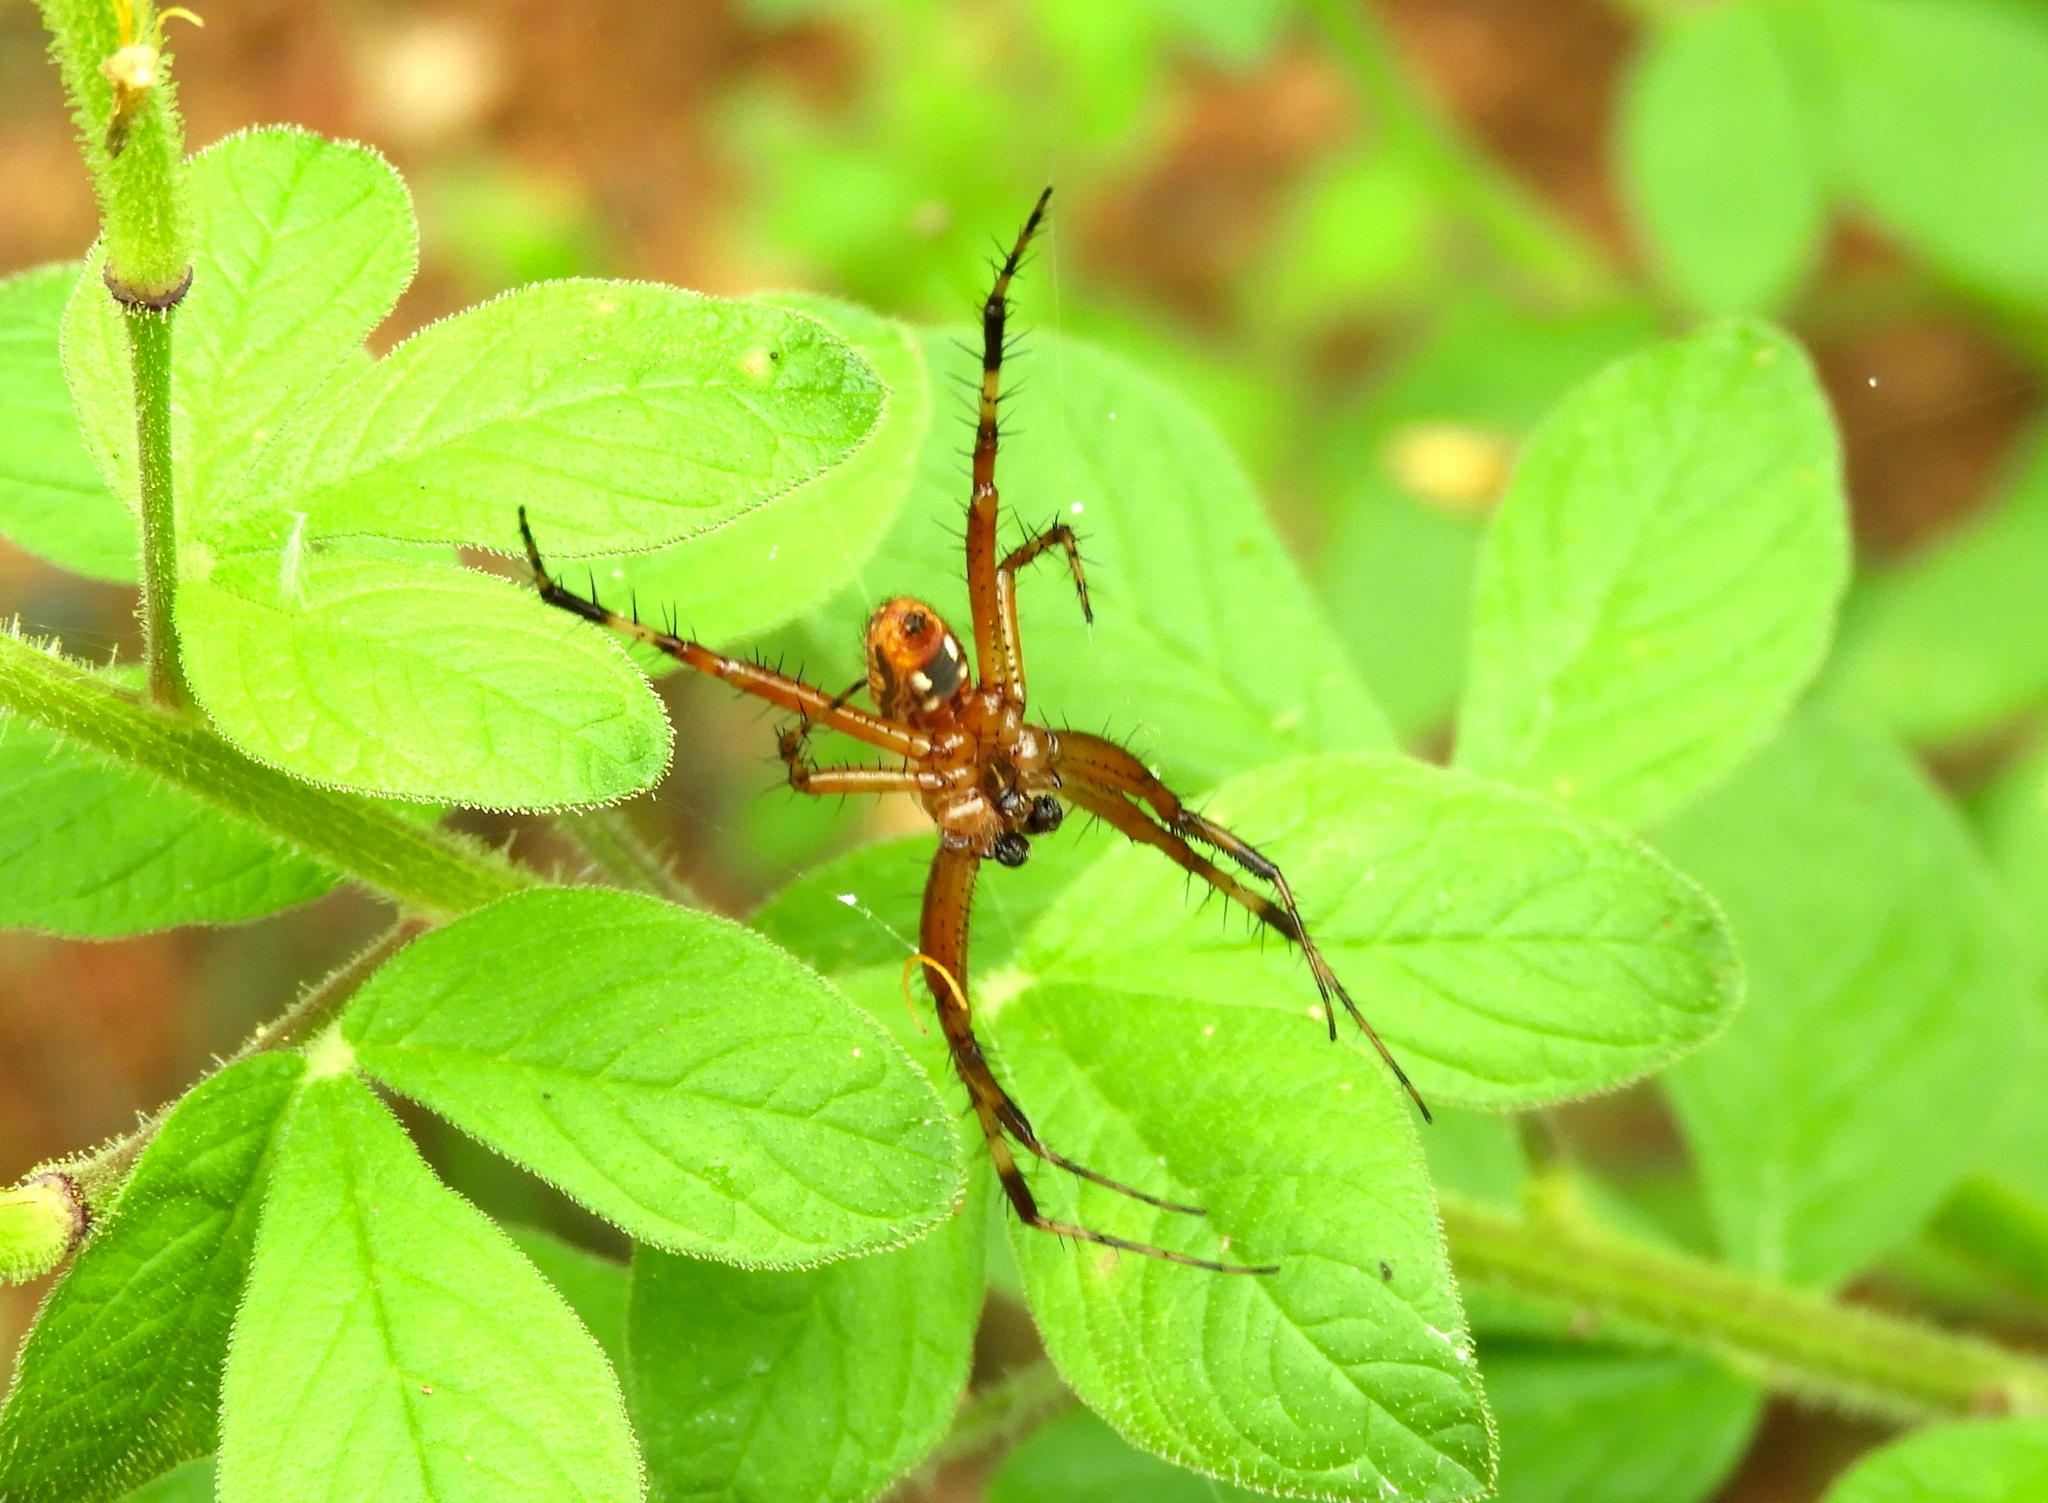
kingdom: Animalia
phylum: Arthropoda
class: Arachnida
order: Araneae
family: Araneidae
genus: Neoscona
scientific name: Neoscona
